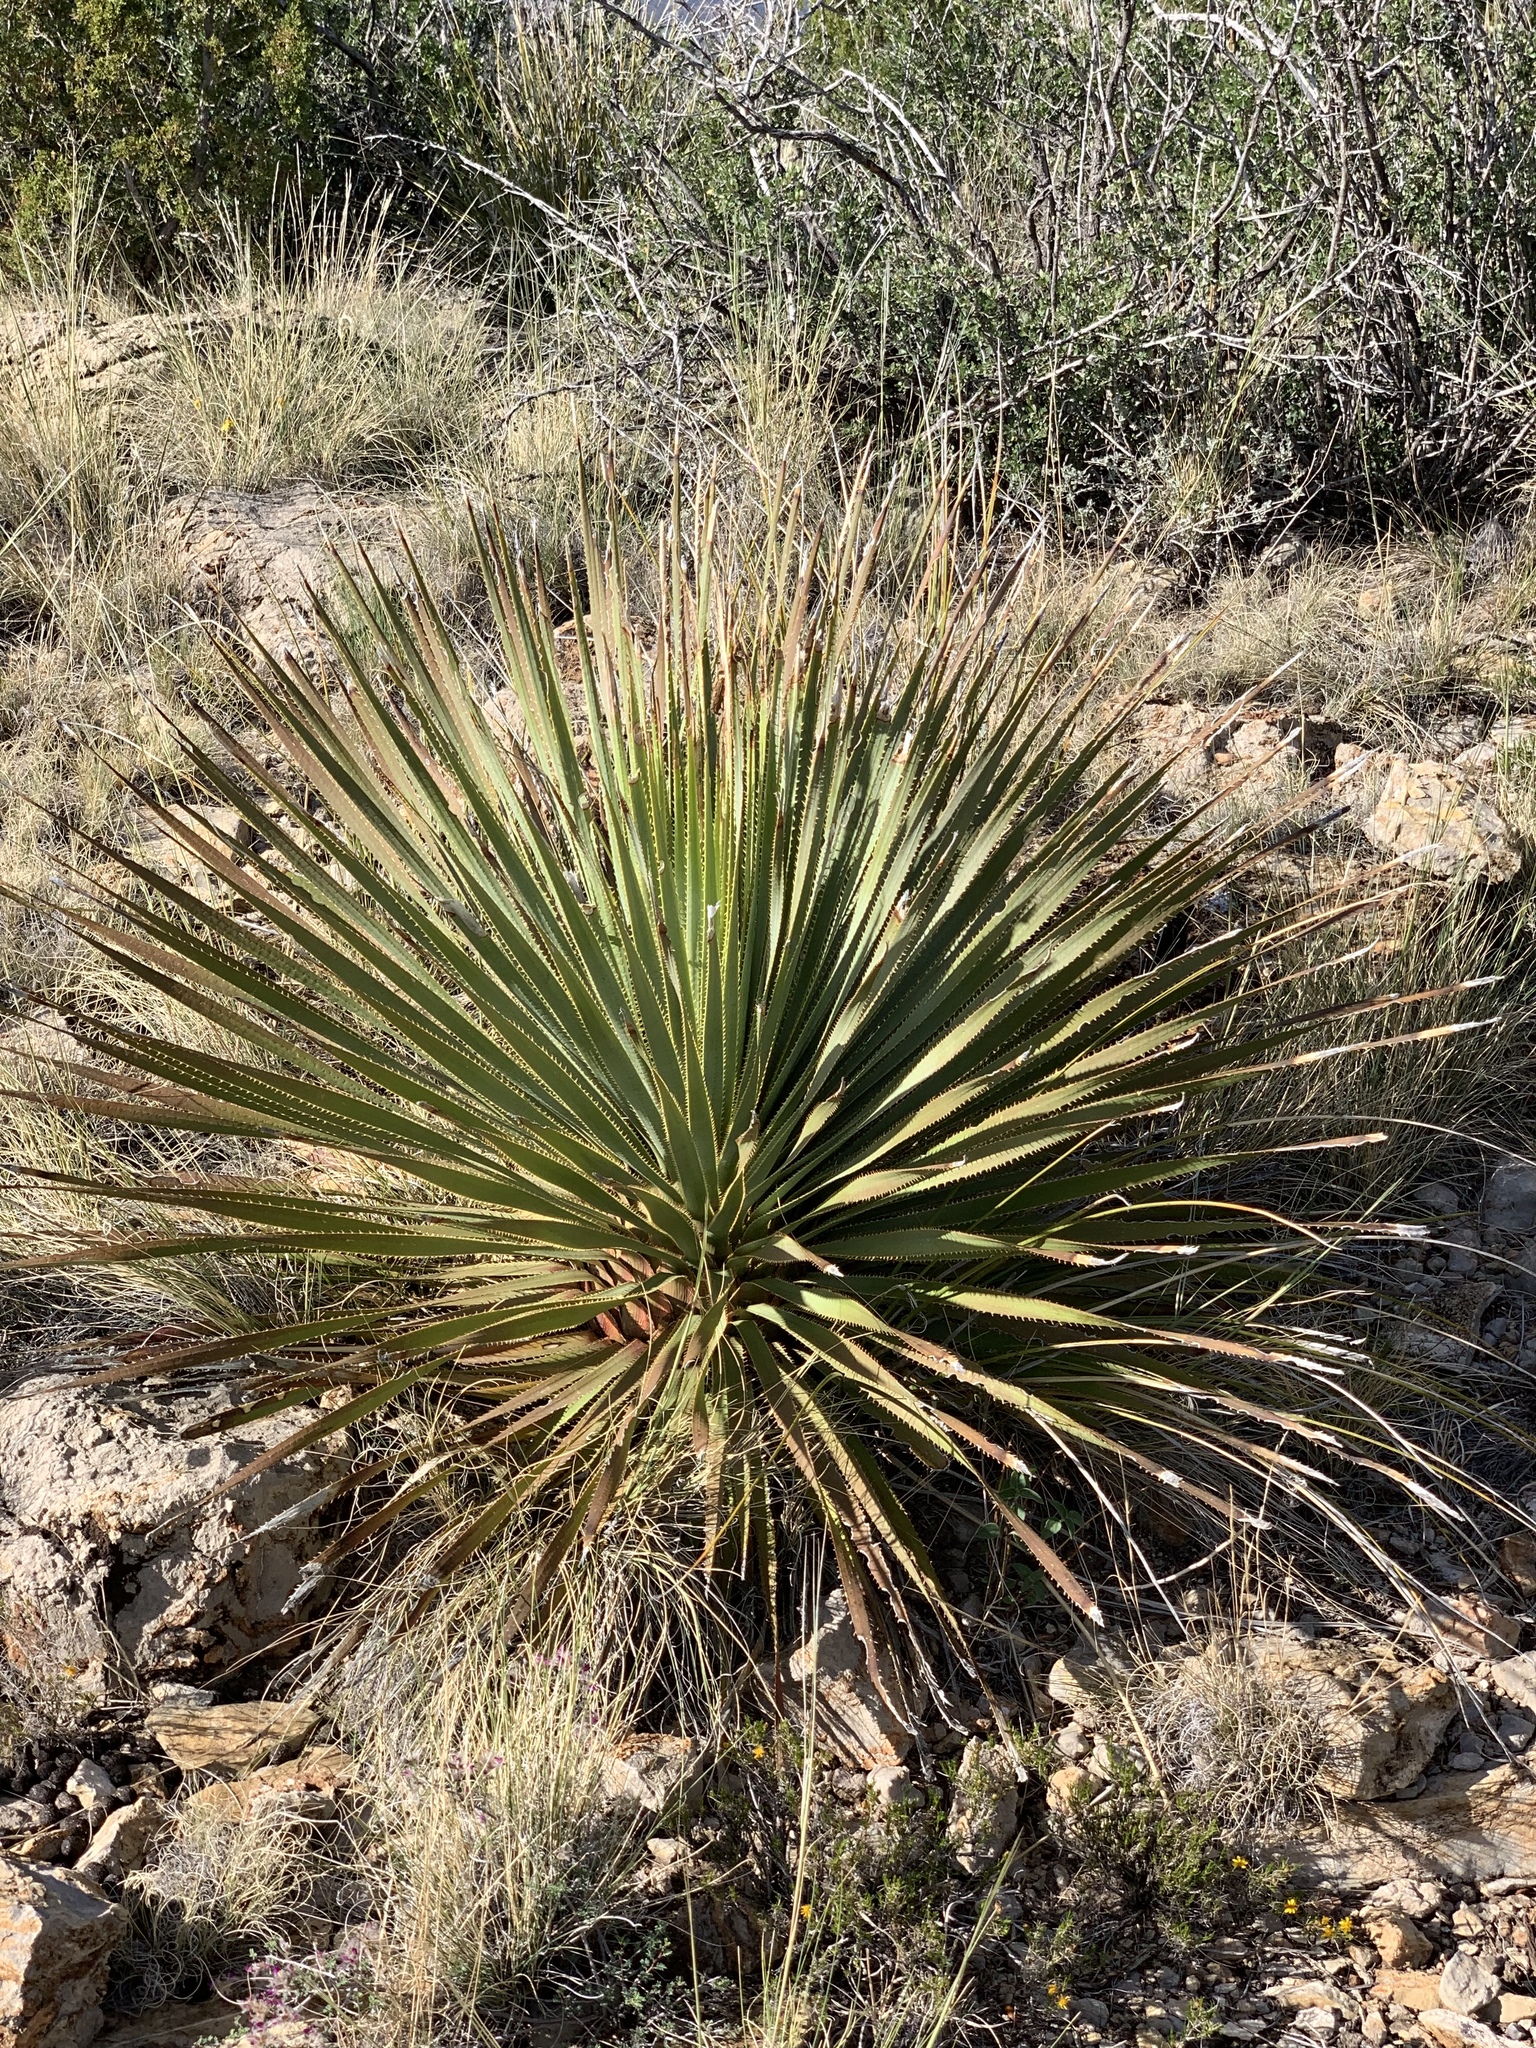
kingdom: Plantae
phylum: Tracheophyta
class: Liliopsida
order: Asparagales
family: Asparagaceae
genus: Dasylirion
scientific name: Dasylirion wheeleri
